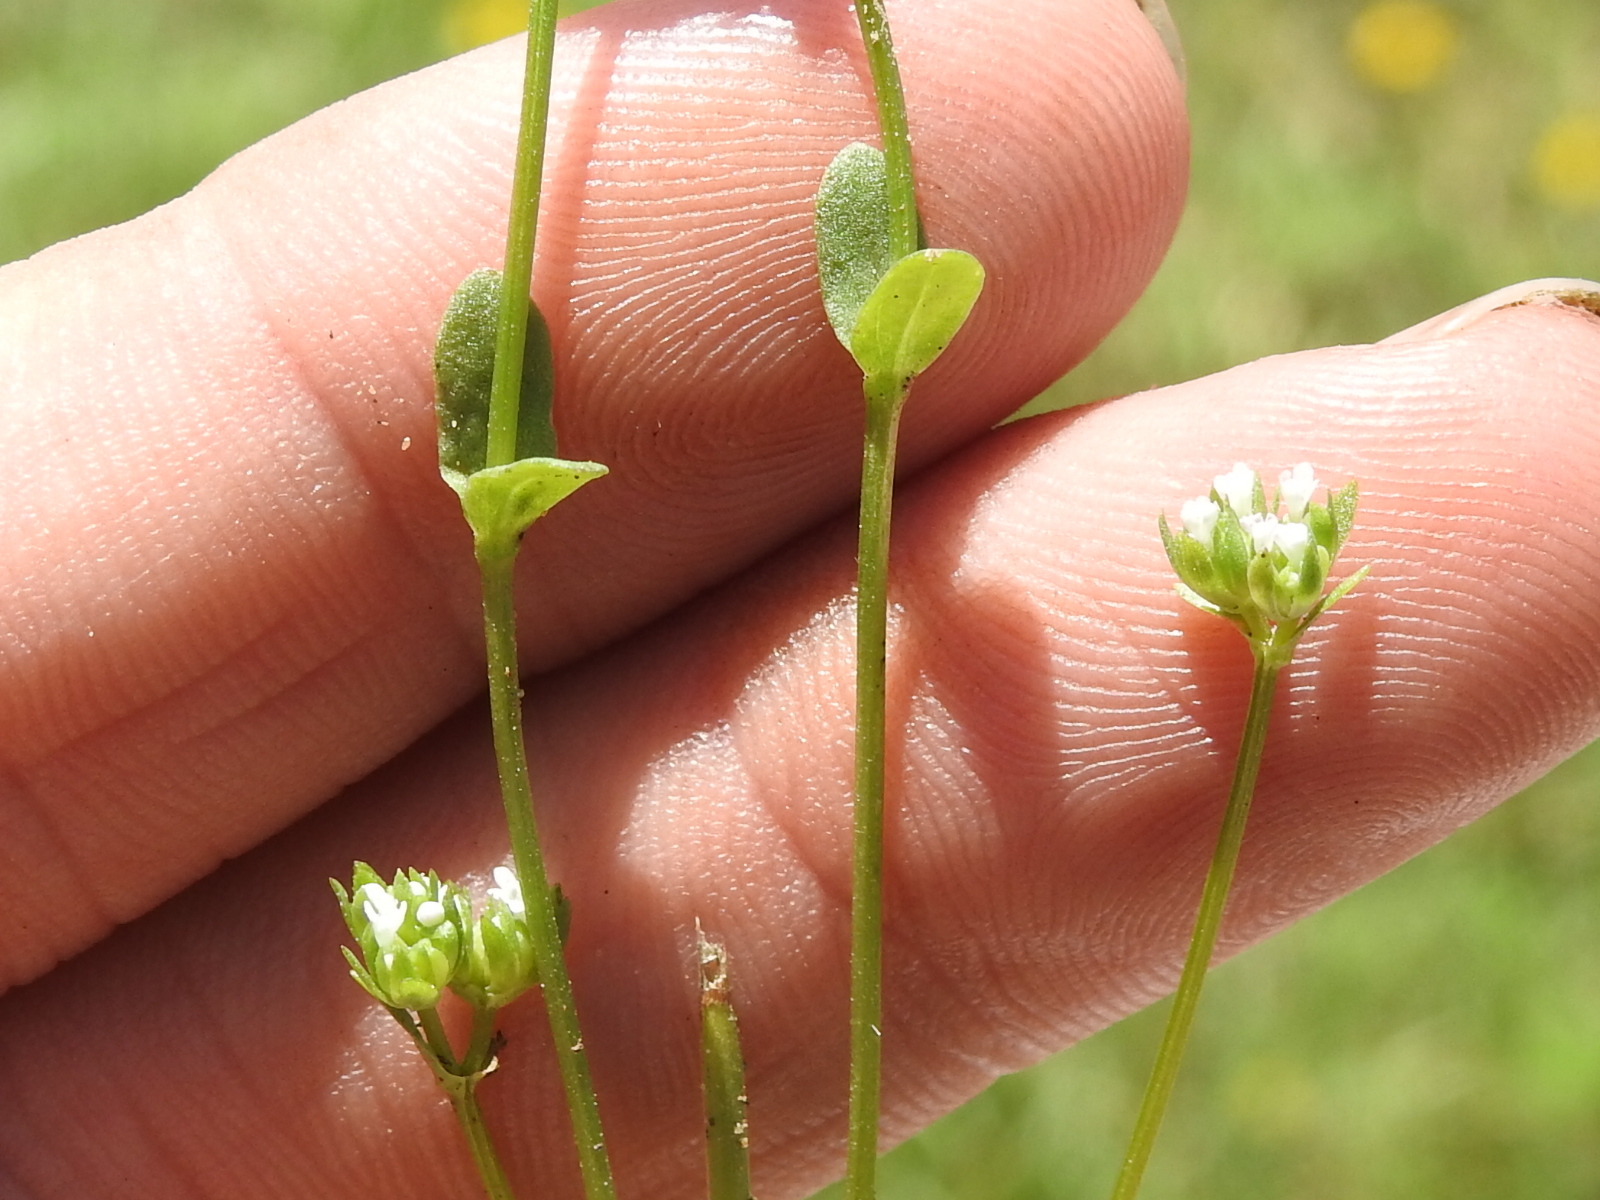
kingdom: Plantae
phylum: Tracheophyta
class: Magnoliopsida
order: Dipsacales
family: Caprifoliaceae
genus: Valerianella
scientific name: Valerianella radiata
